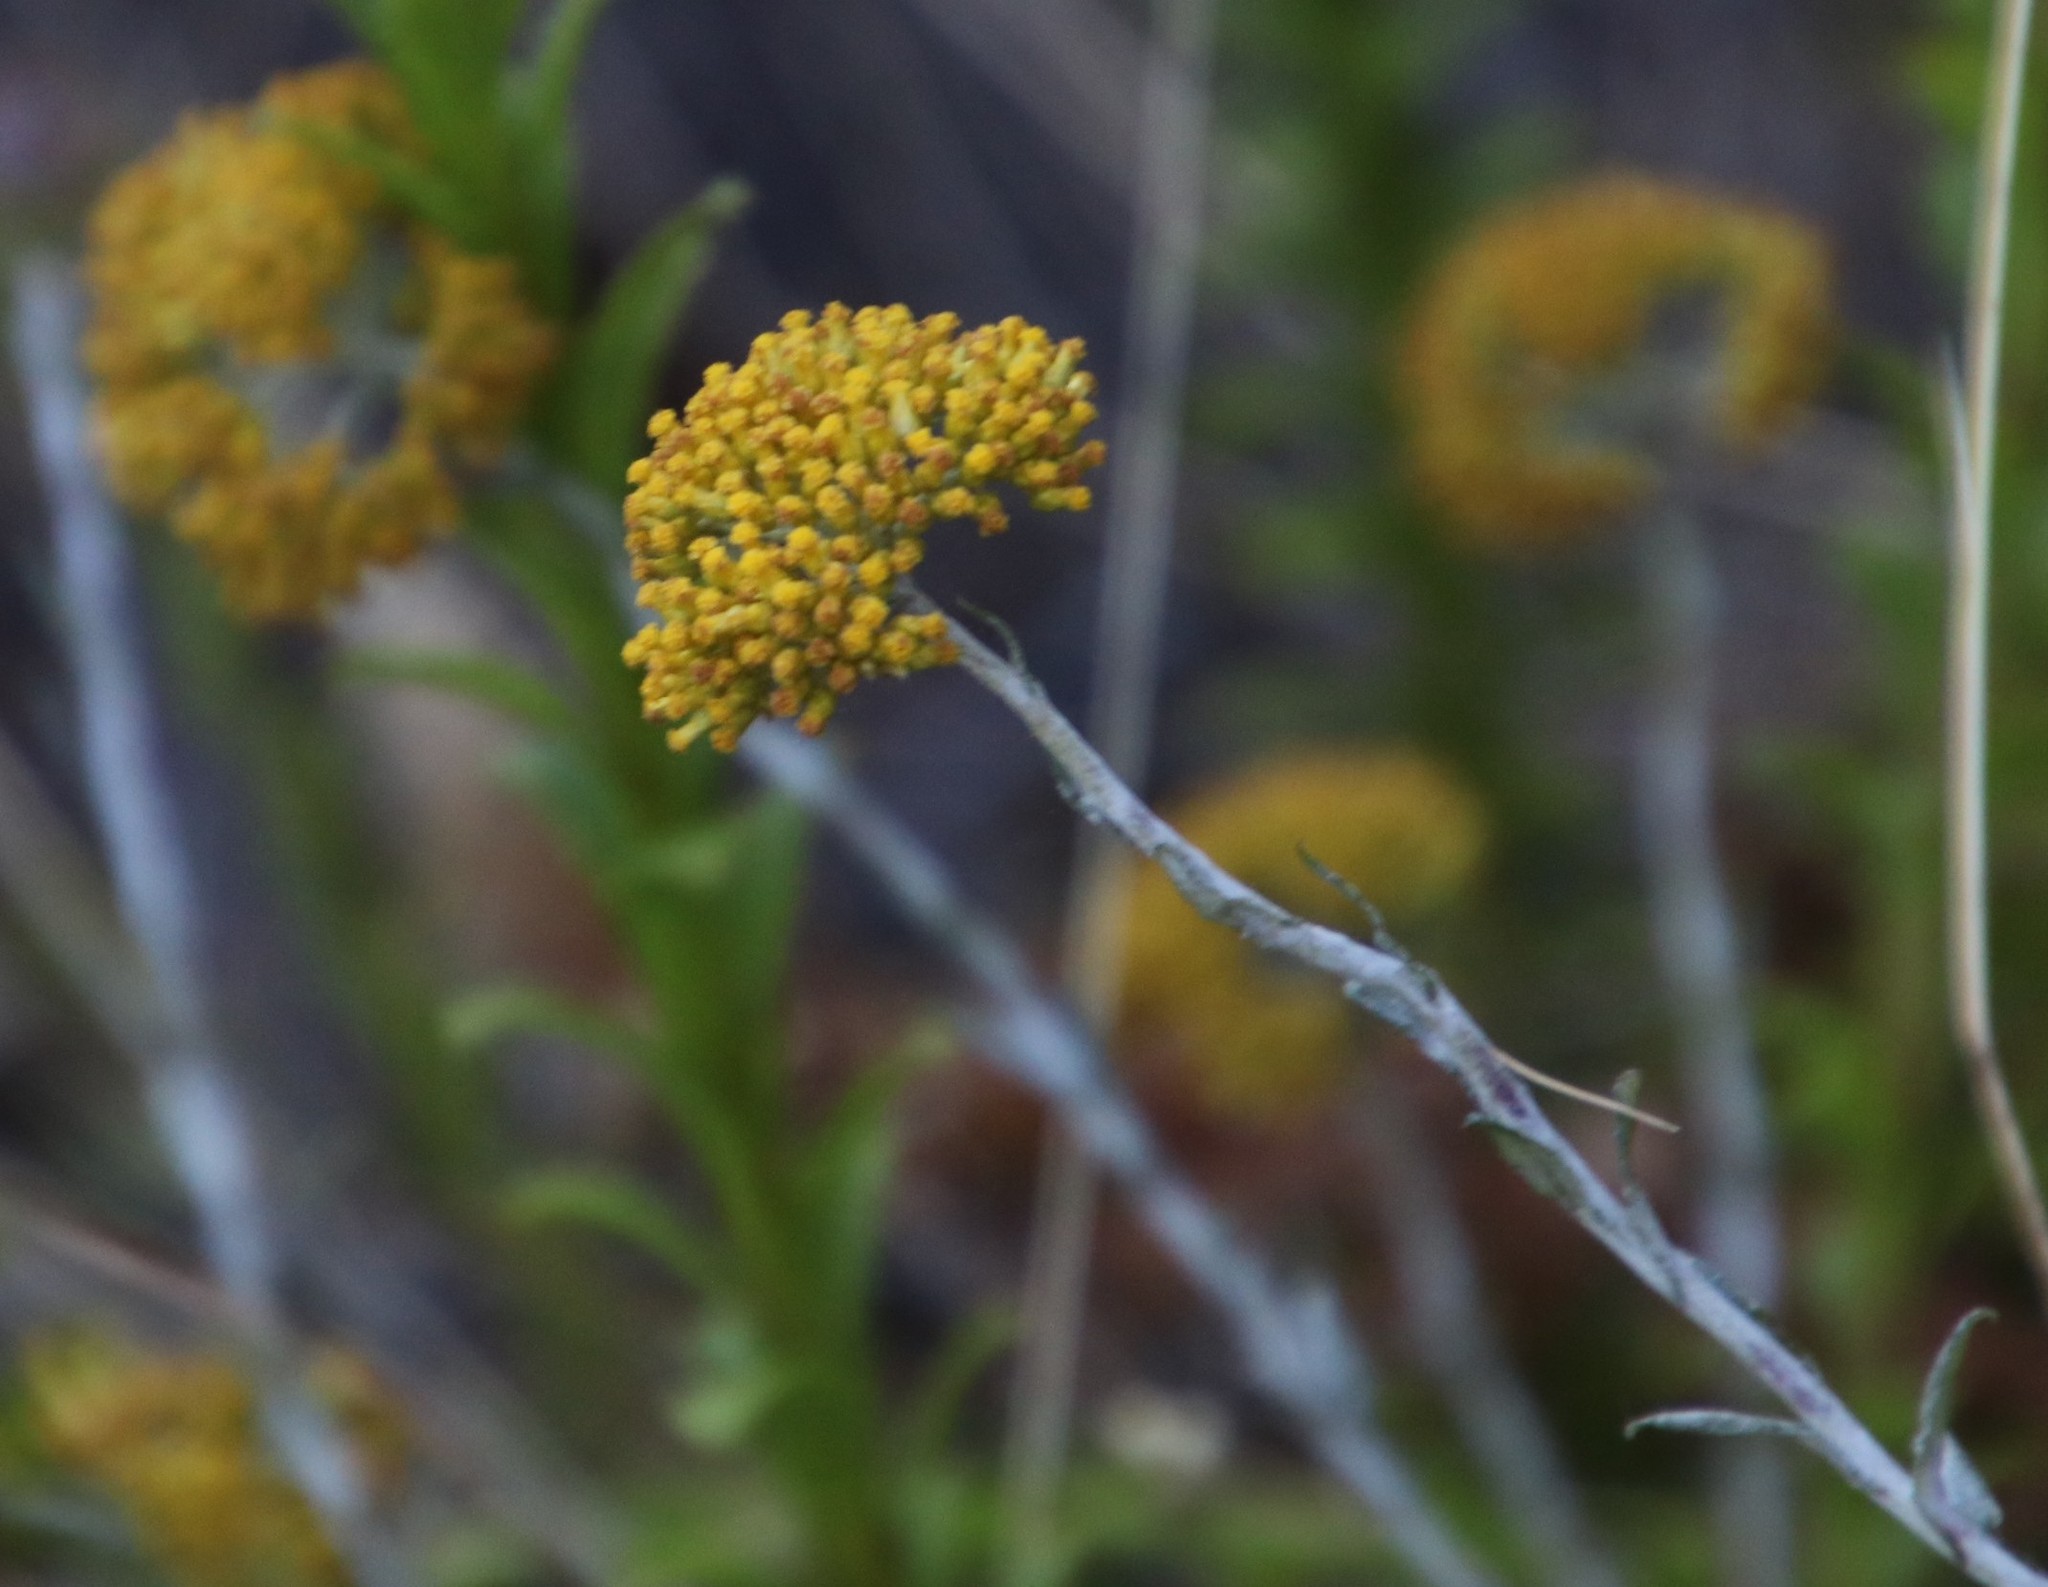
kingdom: Plantae
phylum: Tracheophyta
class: Magnoliopsida
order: Asterales
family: Asteraceae
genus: Helichrysum
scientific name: Helichrysum cymosum
